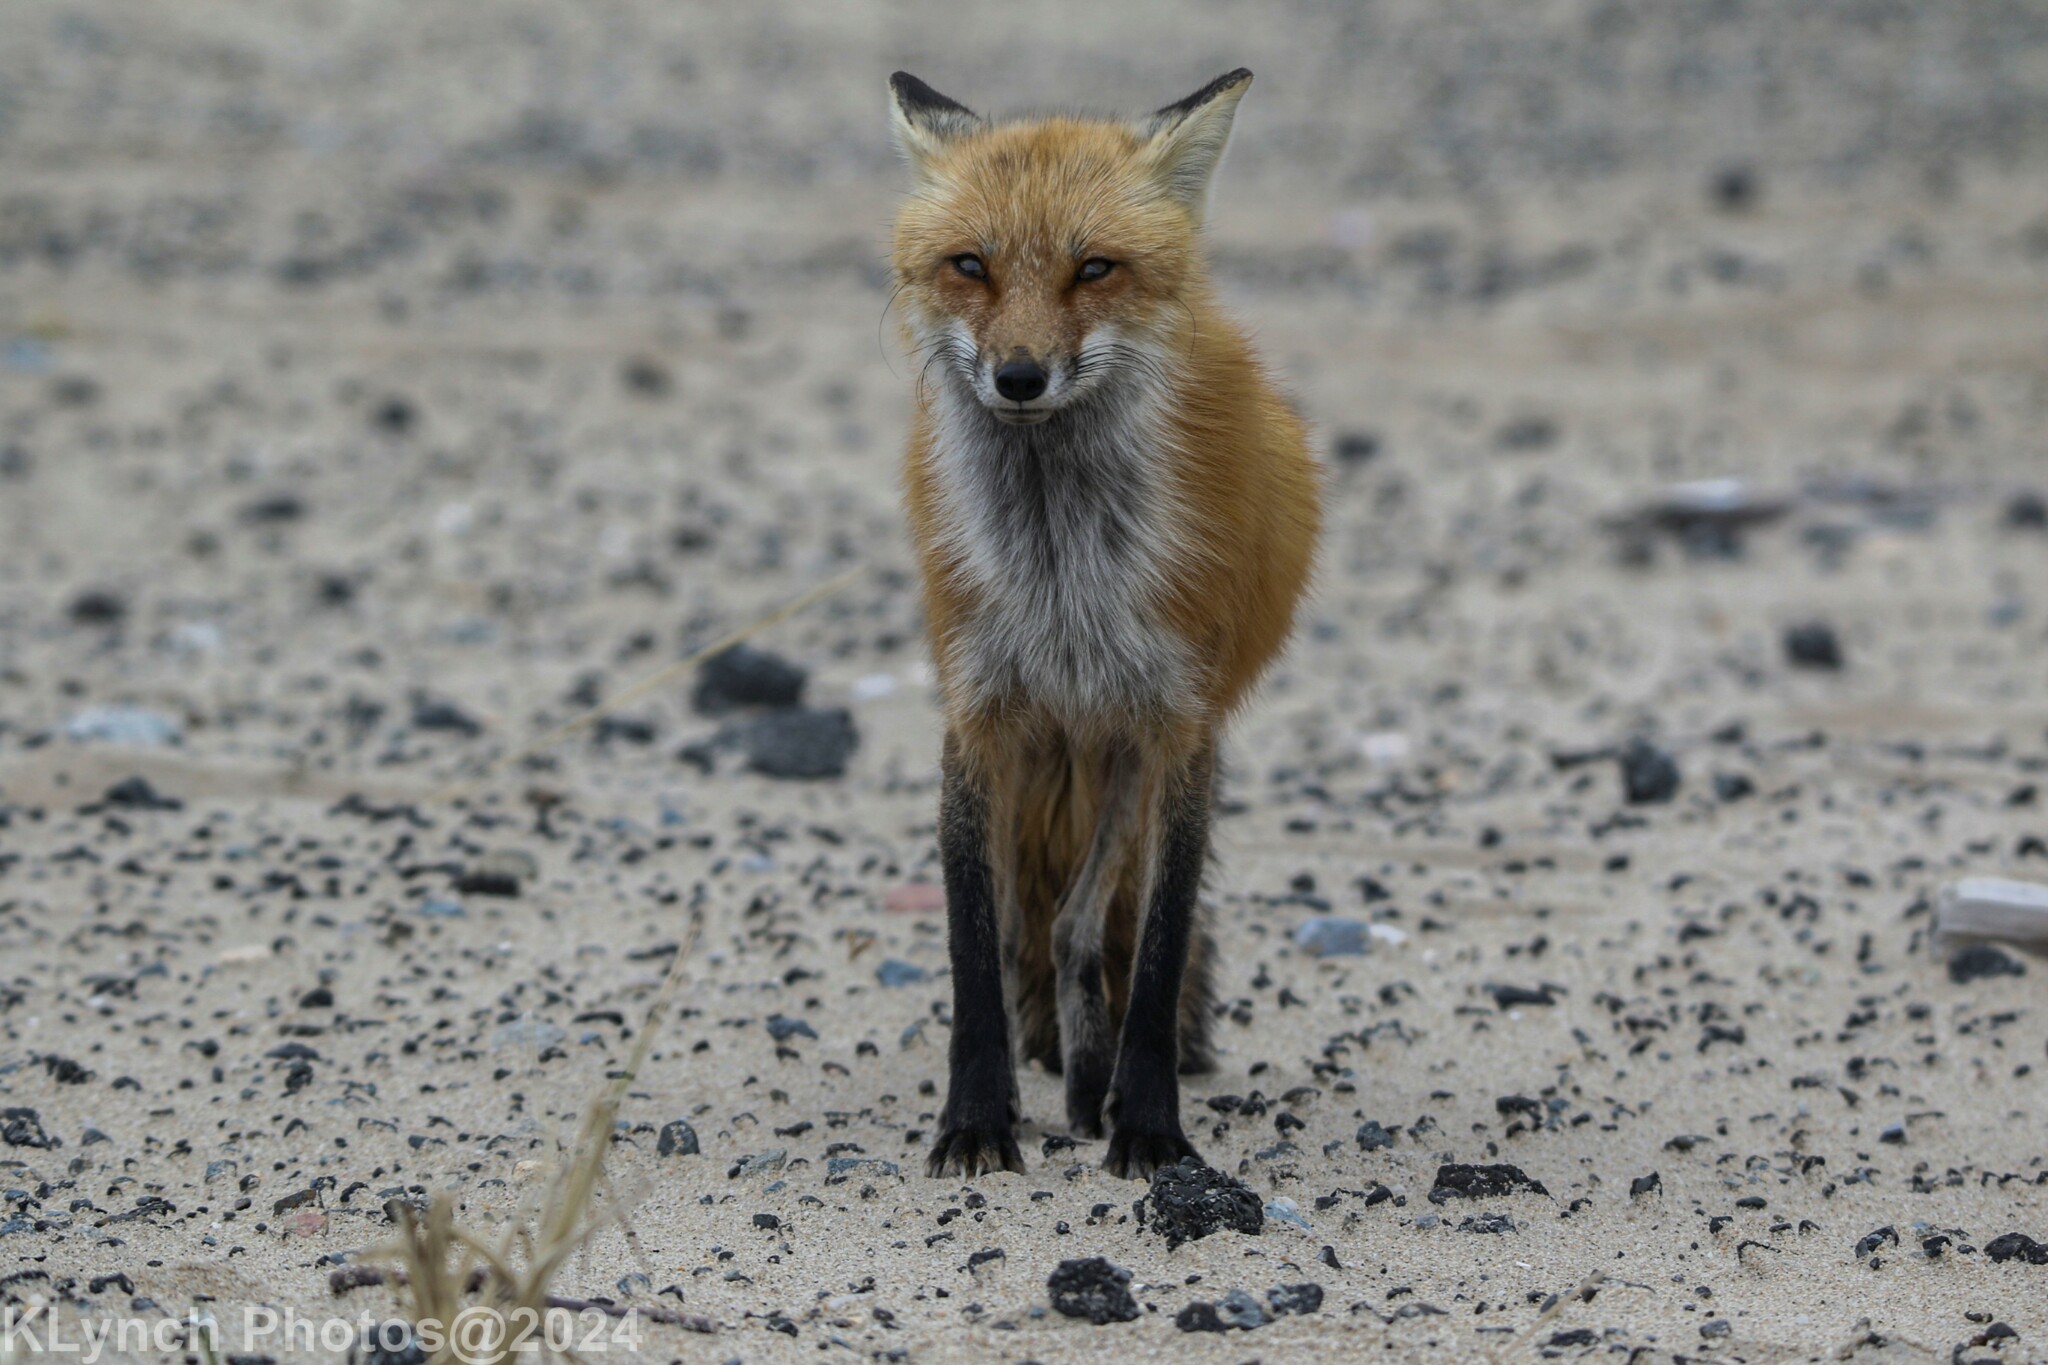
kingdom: Animalia
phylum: Chordata
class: Mammalia
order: Carnivora
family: Canidae
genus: Vulpes
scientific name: Vulpes vulpes
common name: Red fox
